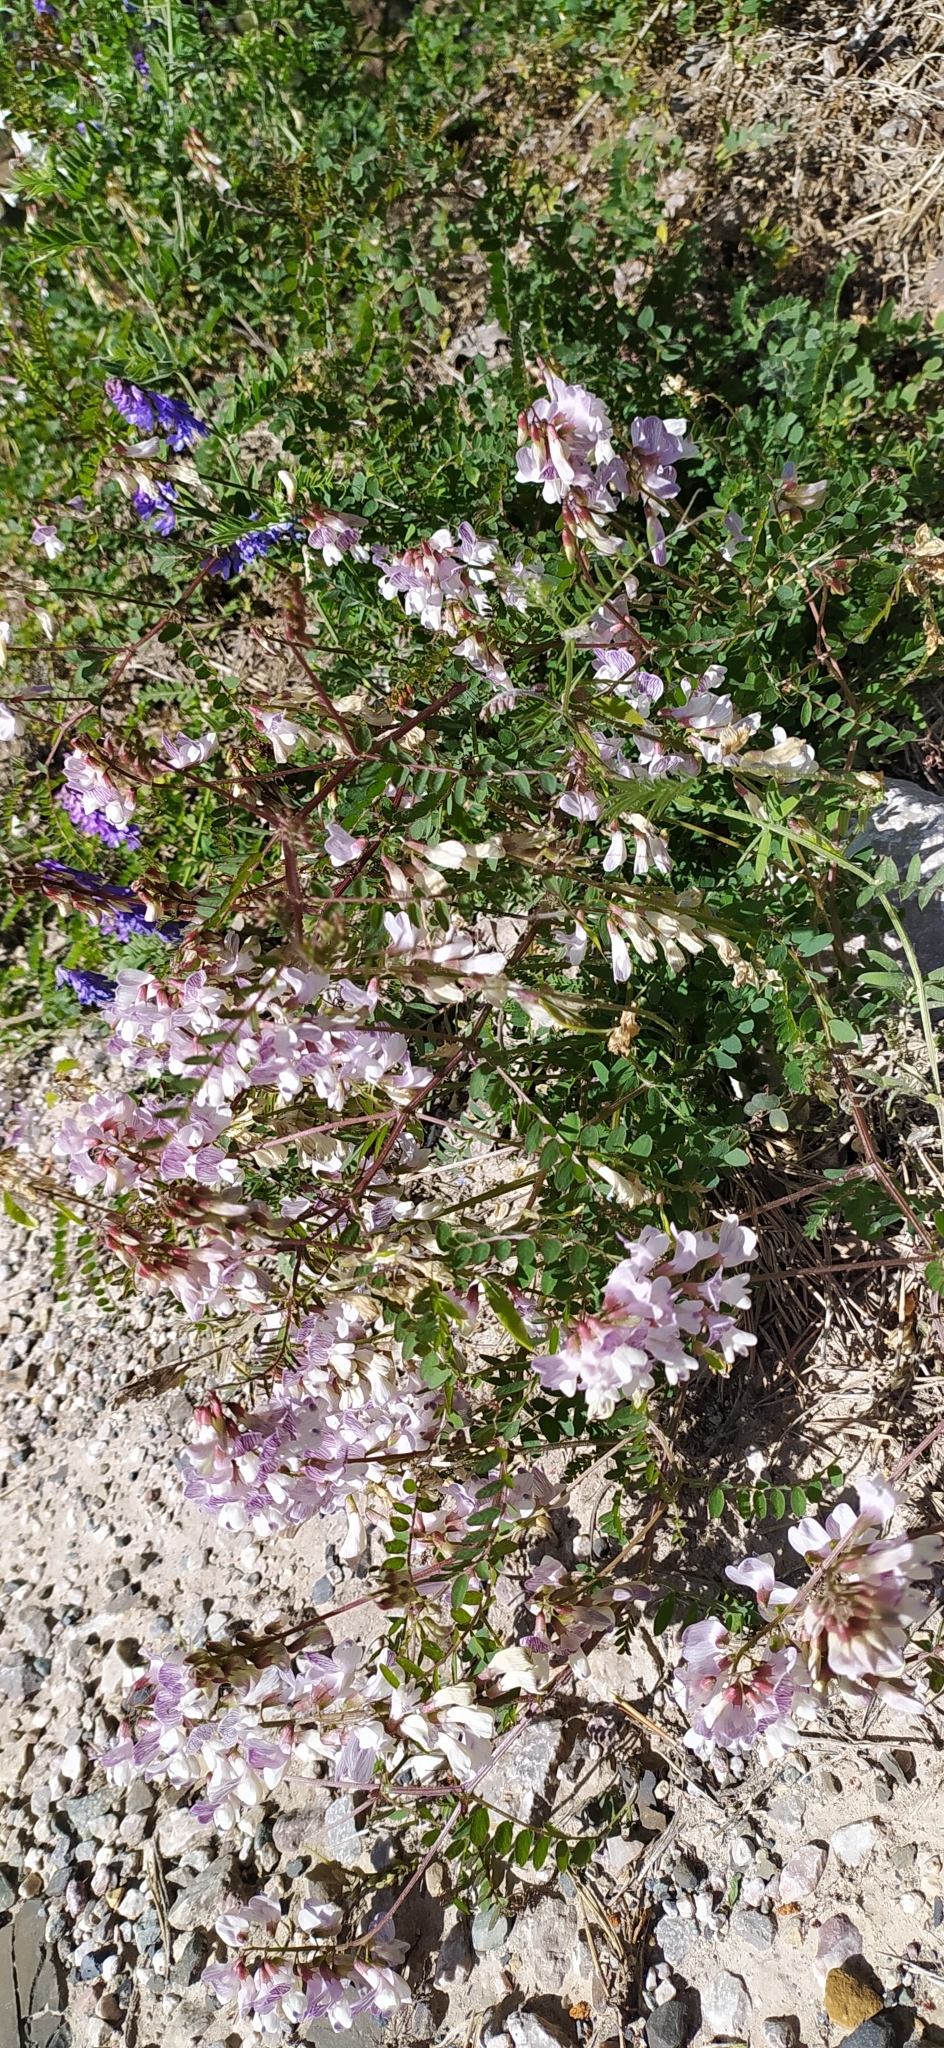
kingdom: Plantae
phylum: Tracheophyta
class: Magnoliopsida
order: Fabales
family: Fabaceae
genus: Vicia
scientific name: Vicia sylvatica
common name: Wood vetch
